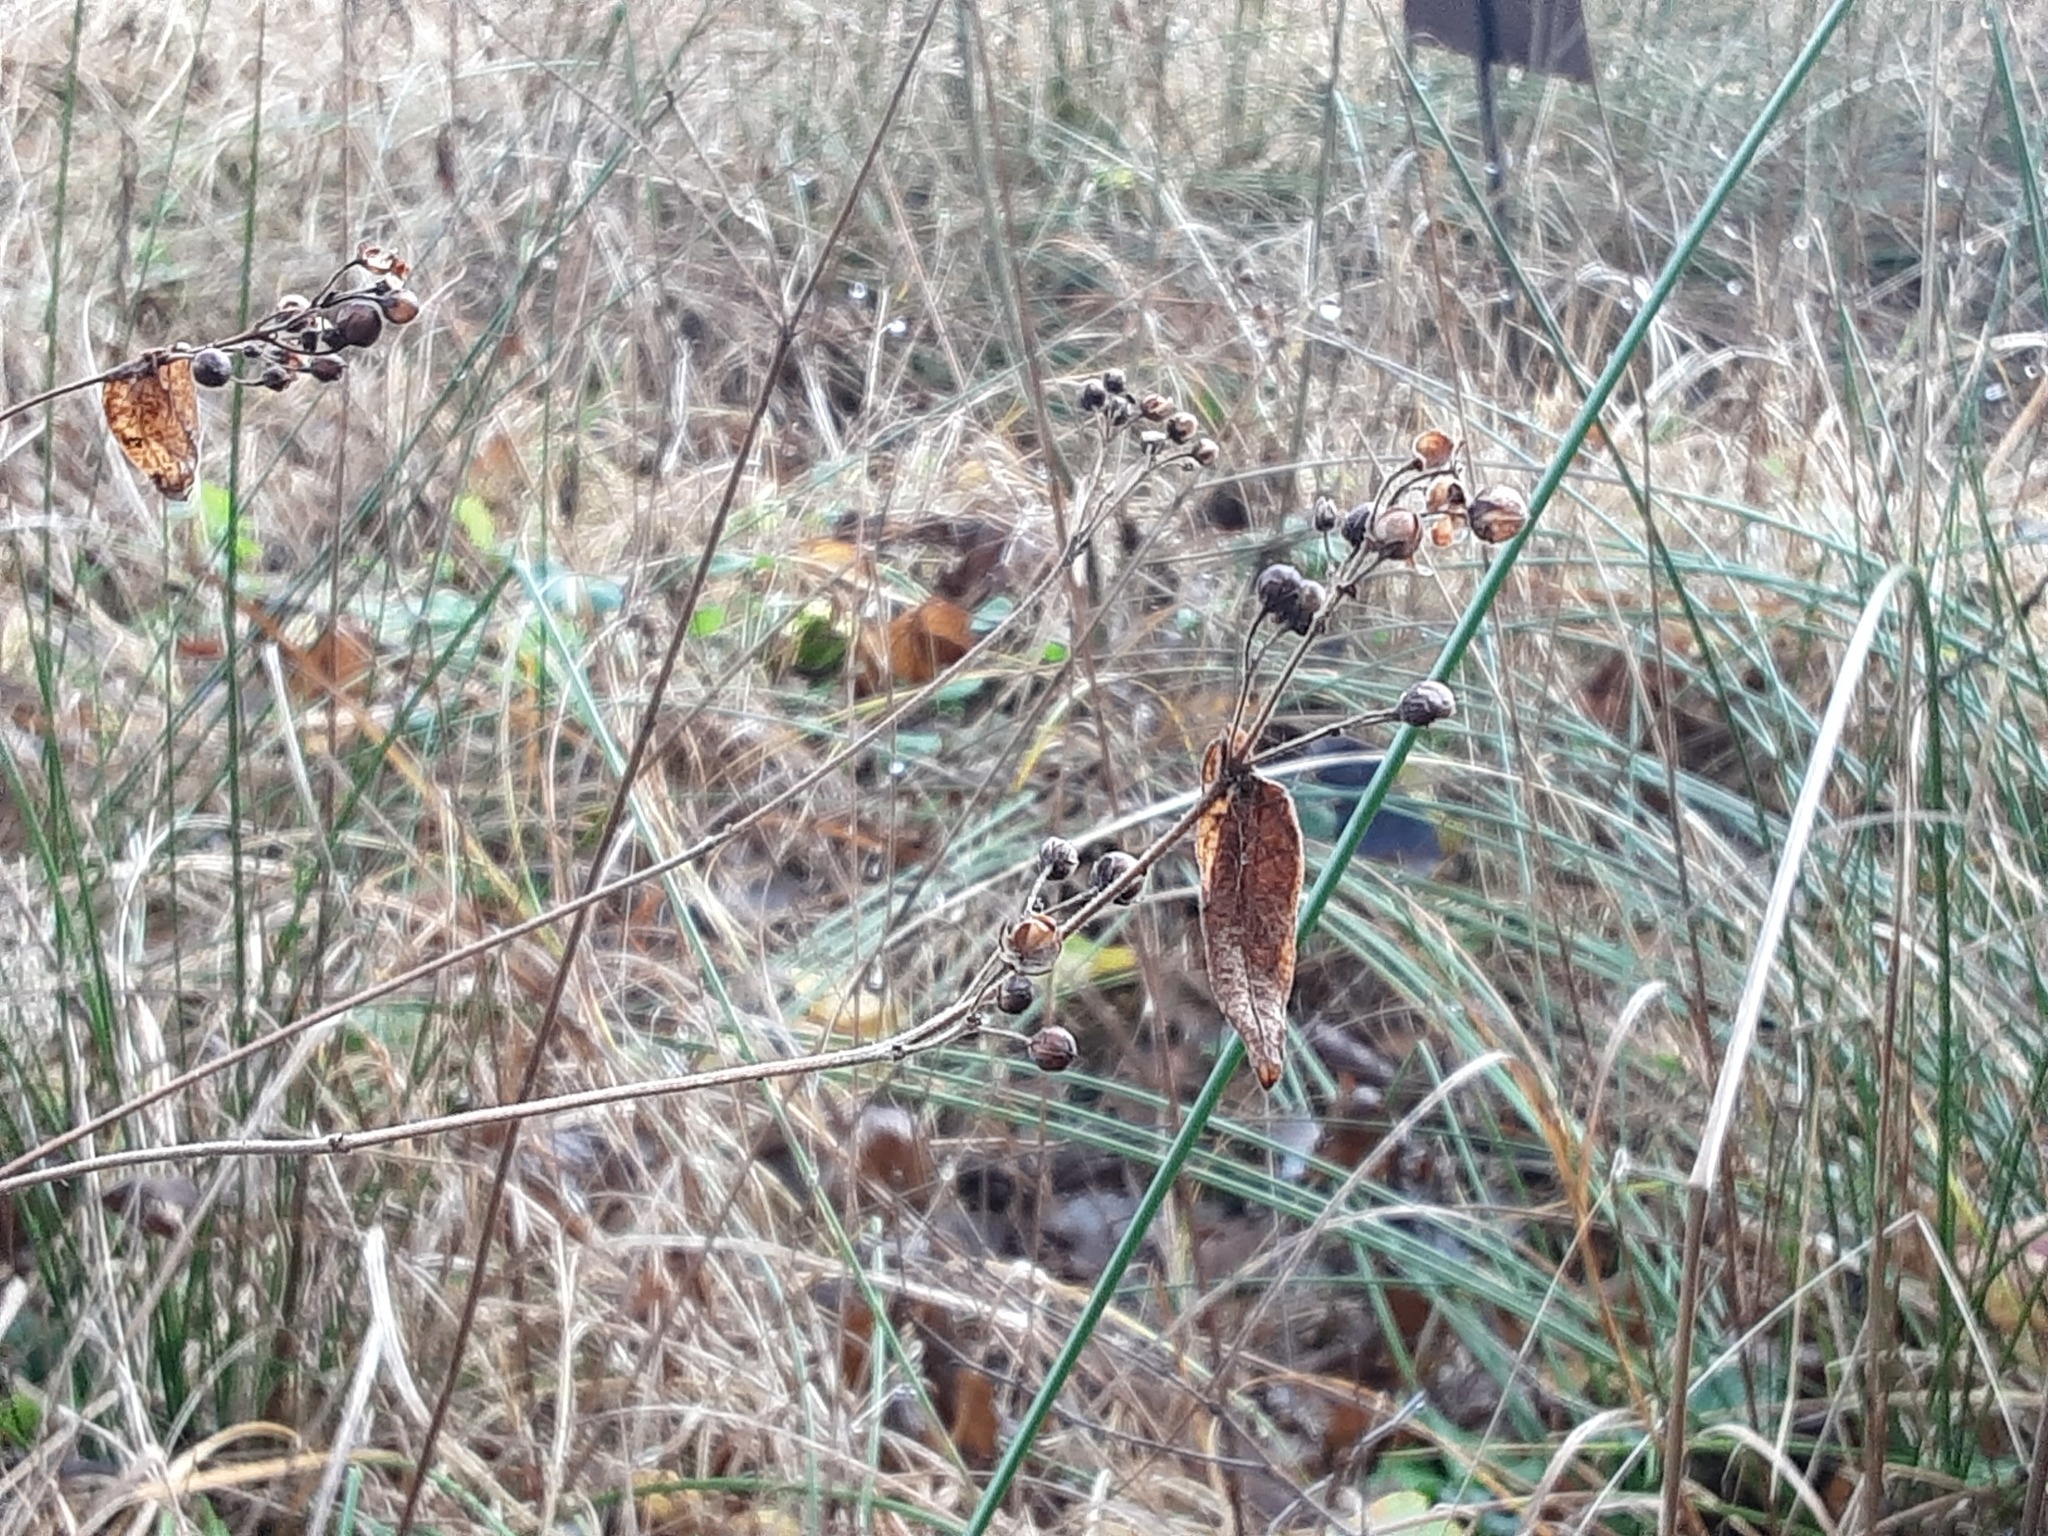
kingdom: Plantae
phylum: Tracheophyta
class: Magnoliopsida
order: Ericales
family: Primulaceae
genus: Lysimachia
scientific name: Lysimachia vulgaris
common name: Yellow loosestrife
